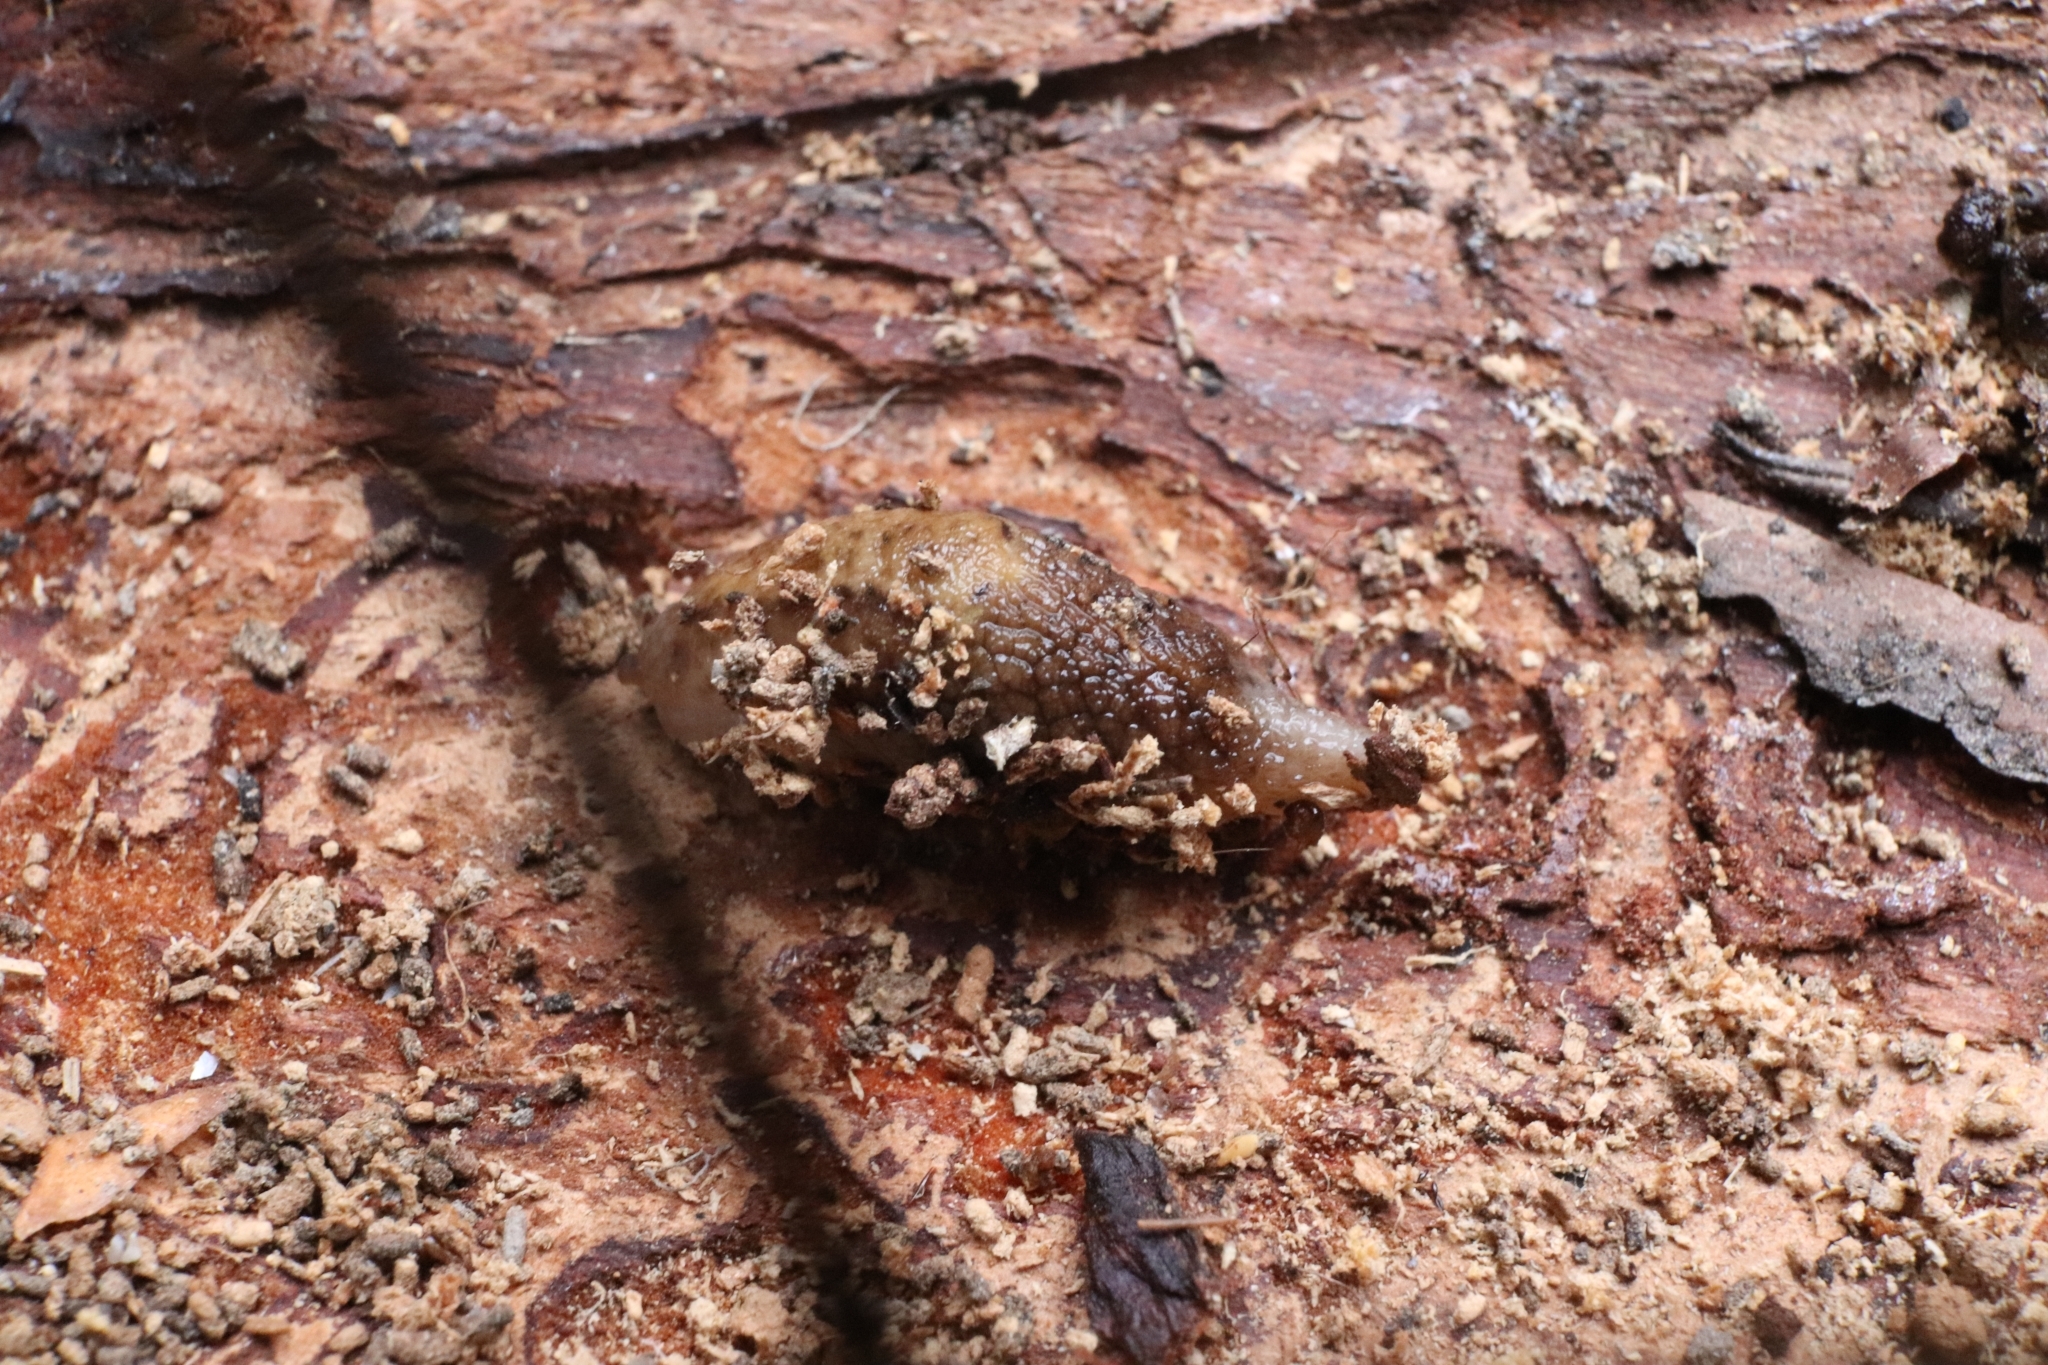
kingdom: Animalia
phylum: Mollusca
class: Gastropoda
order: Stylommatophora
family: Ariolimacidae
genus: Prophysaon
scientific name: Prophysaon andersonii
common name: Reticulate taildropper
